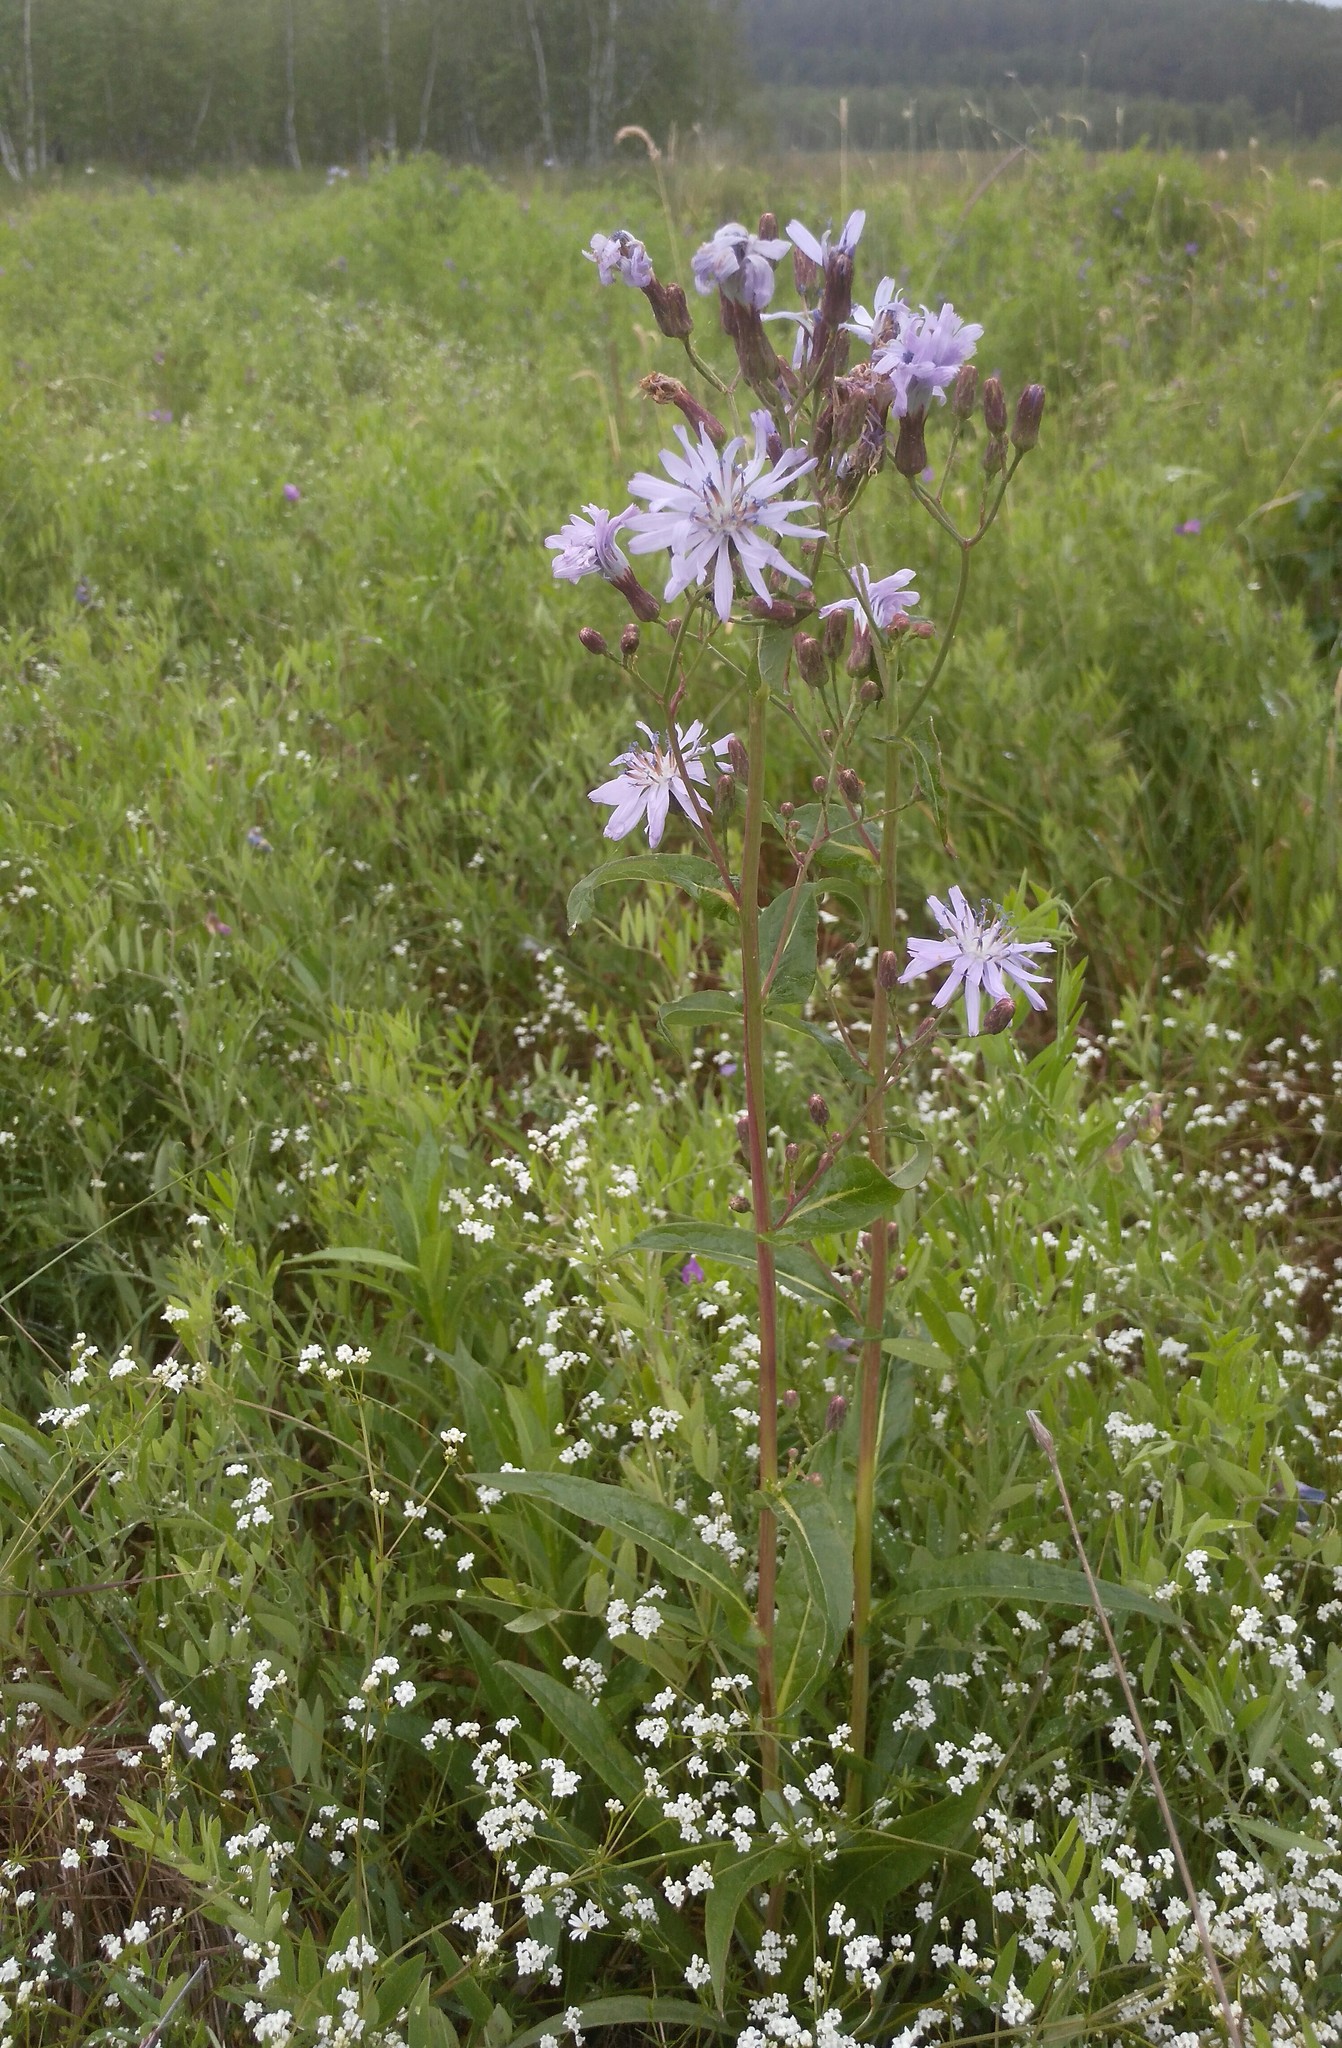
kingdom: Plantae
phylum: Tracheophyta
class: Magnoliopsida
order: Asterales
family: Asteraceae
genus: Lactuca
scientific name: Lactuca sibirica
